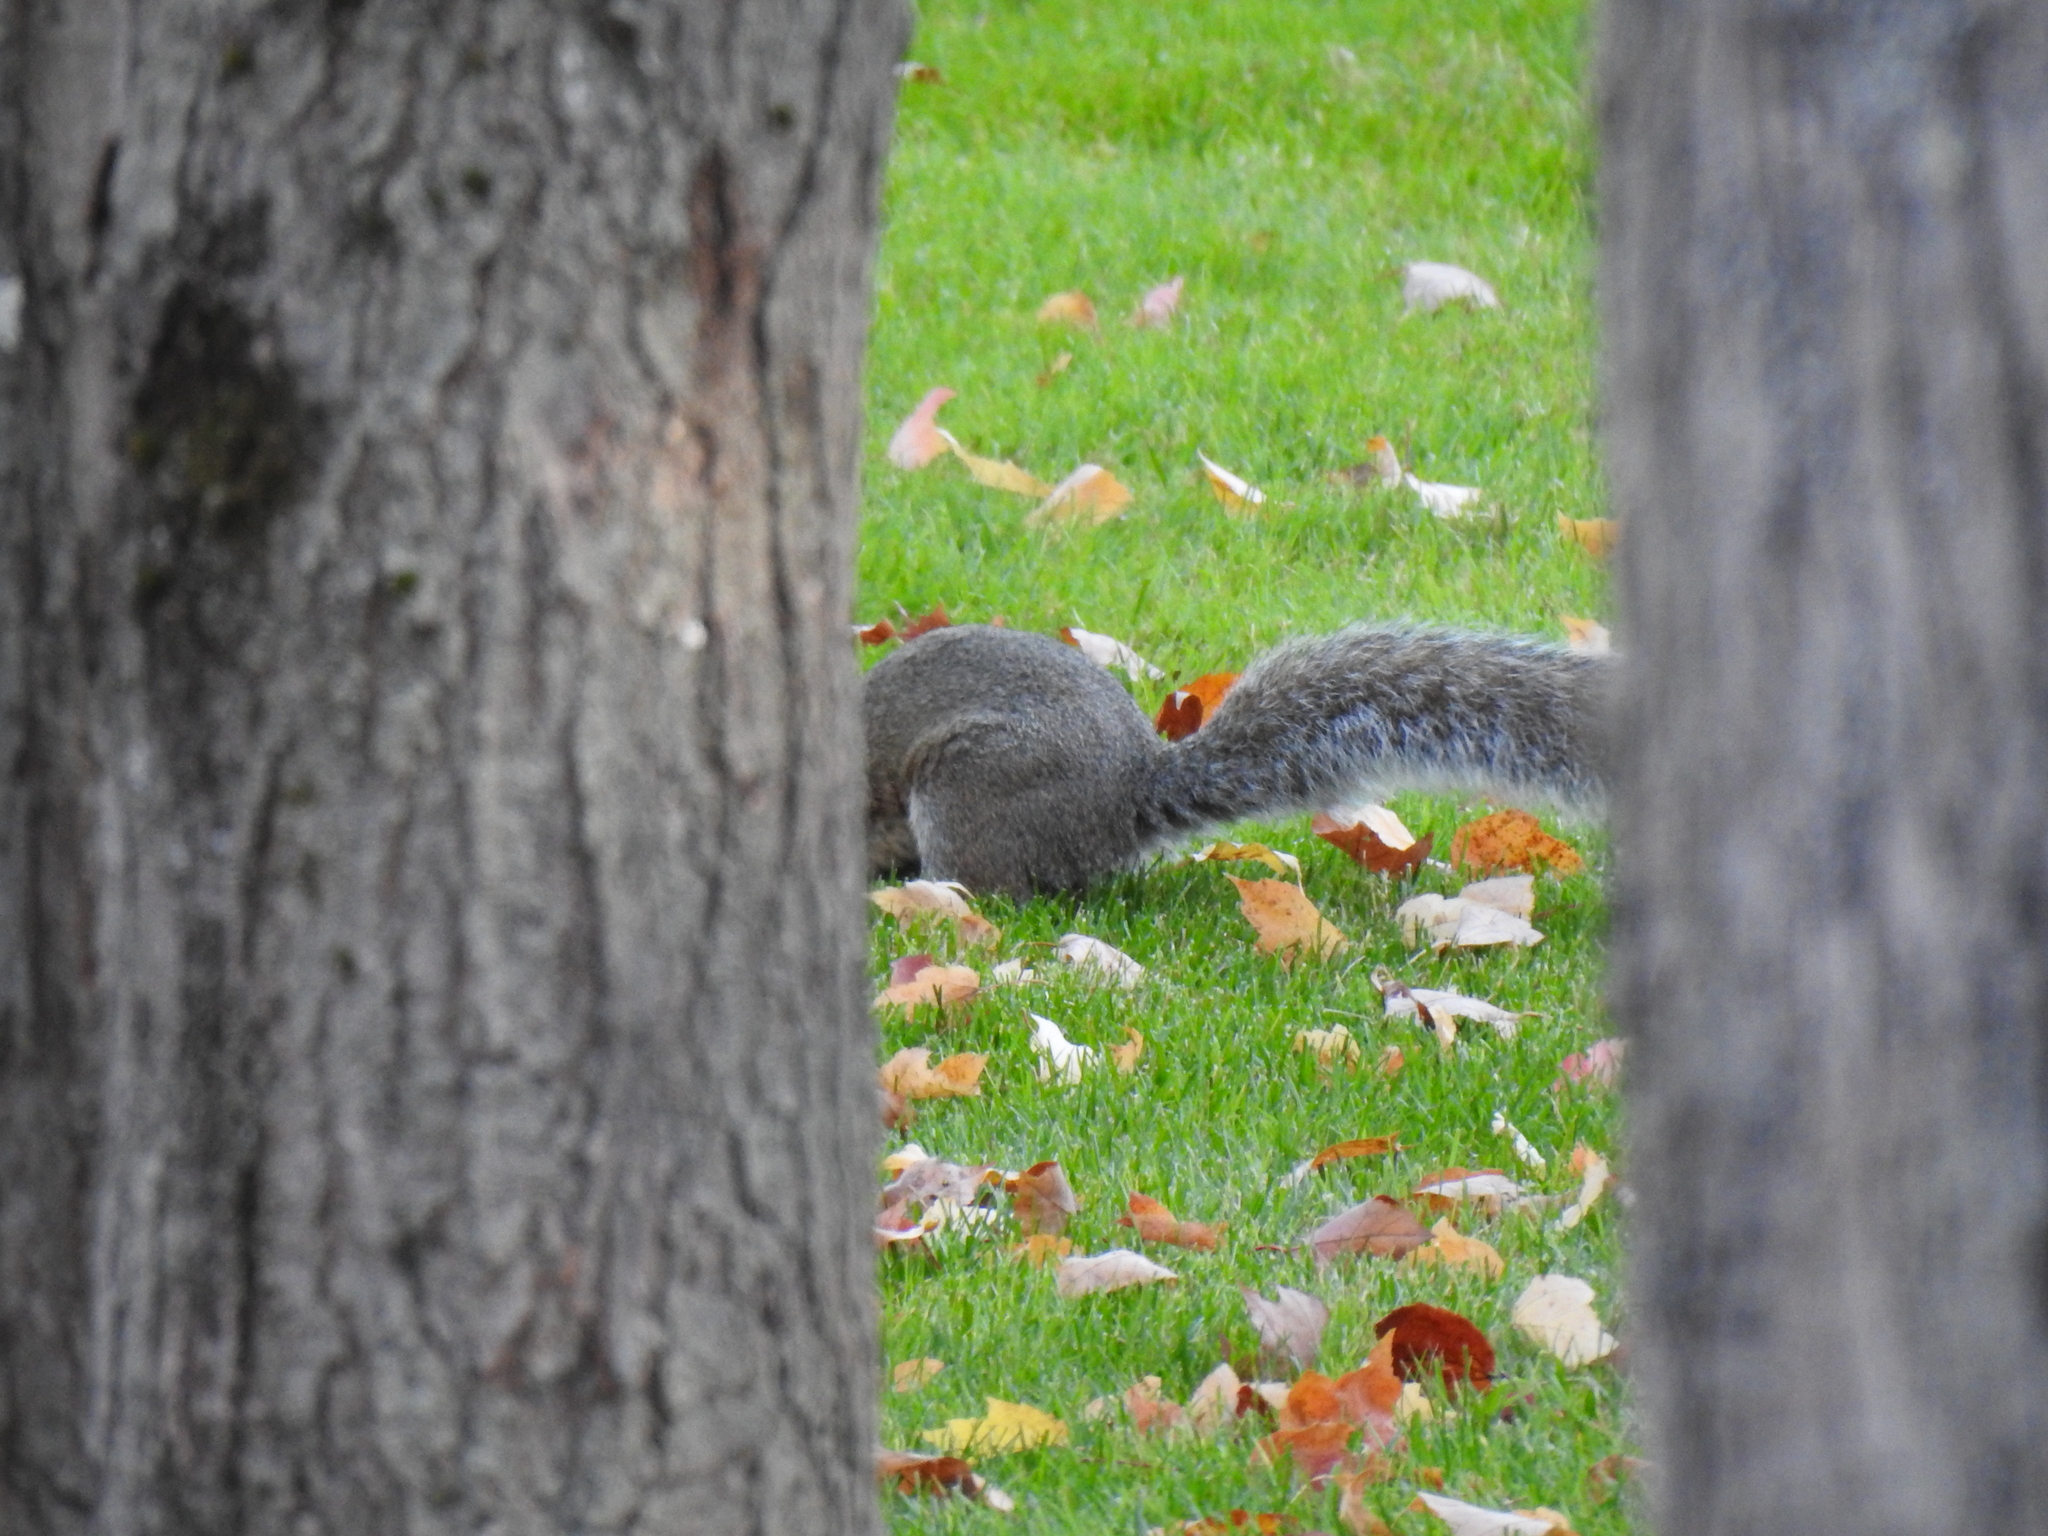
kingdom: Animalia
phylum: Chordata
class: Mammalia
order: Rodentia
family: Sciuridae
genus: Sciurus
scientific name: Sciurus carolinensis
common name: Eastern gray squirrel
